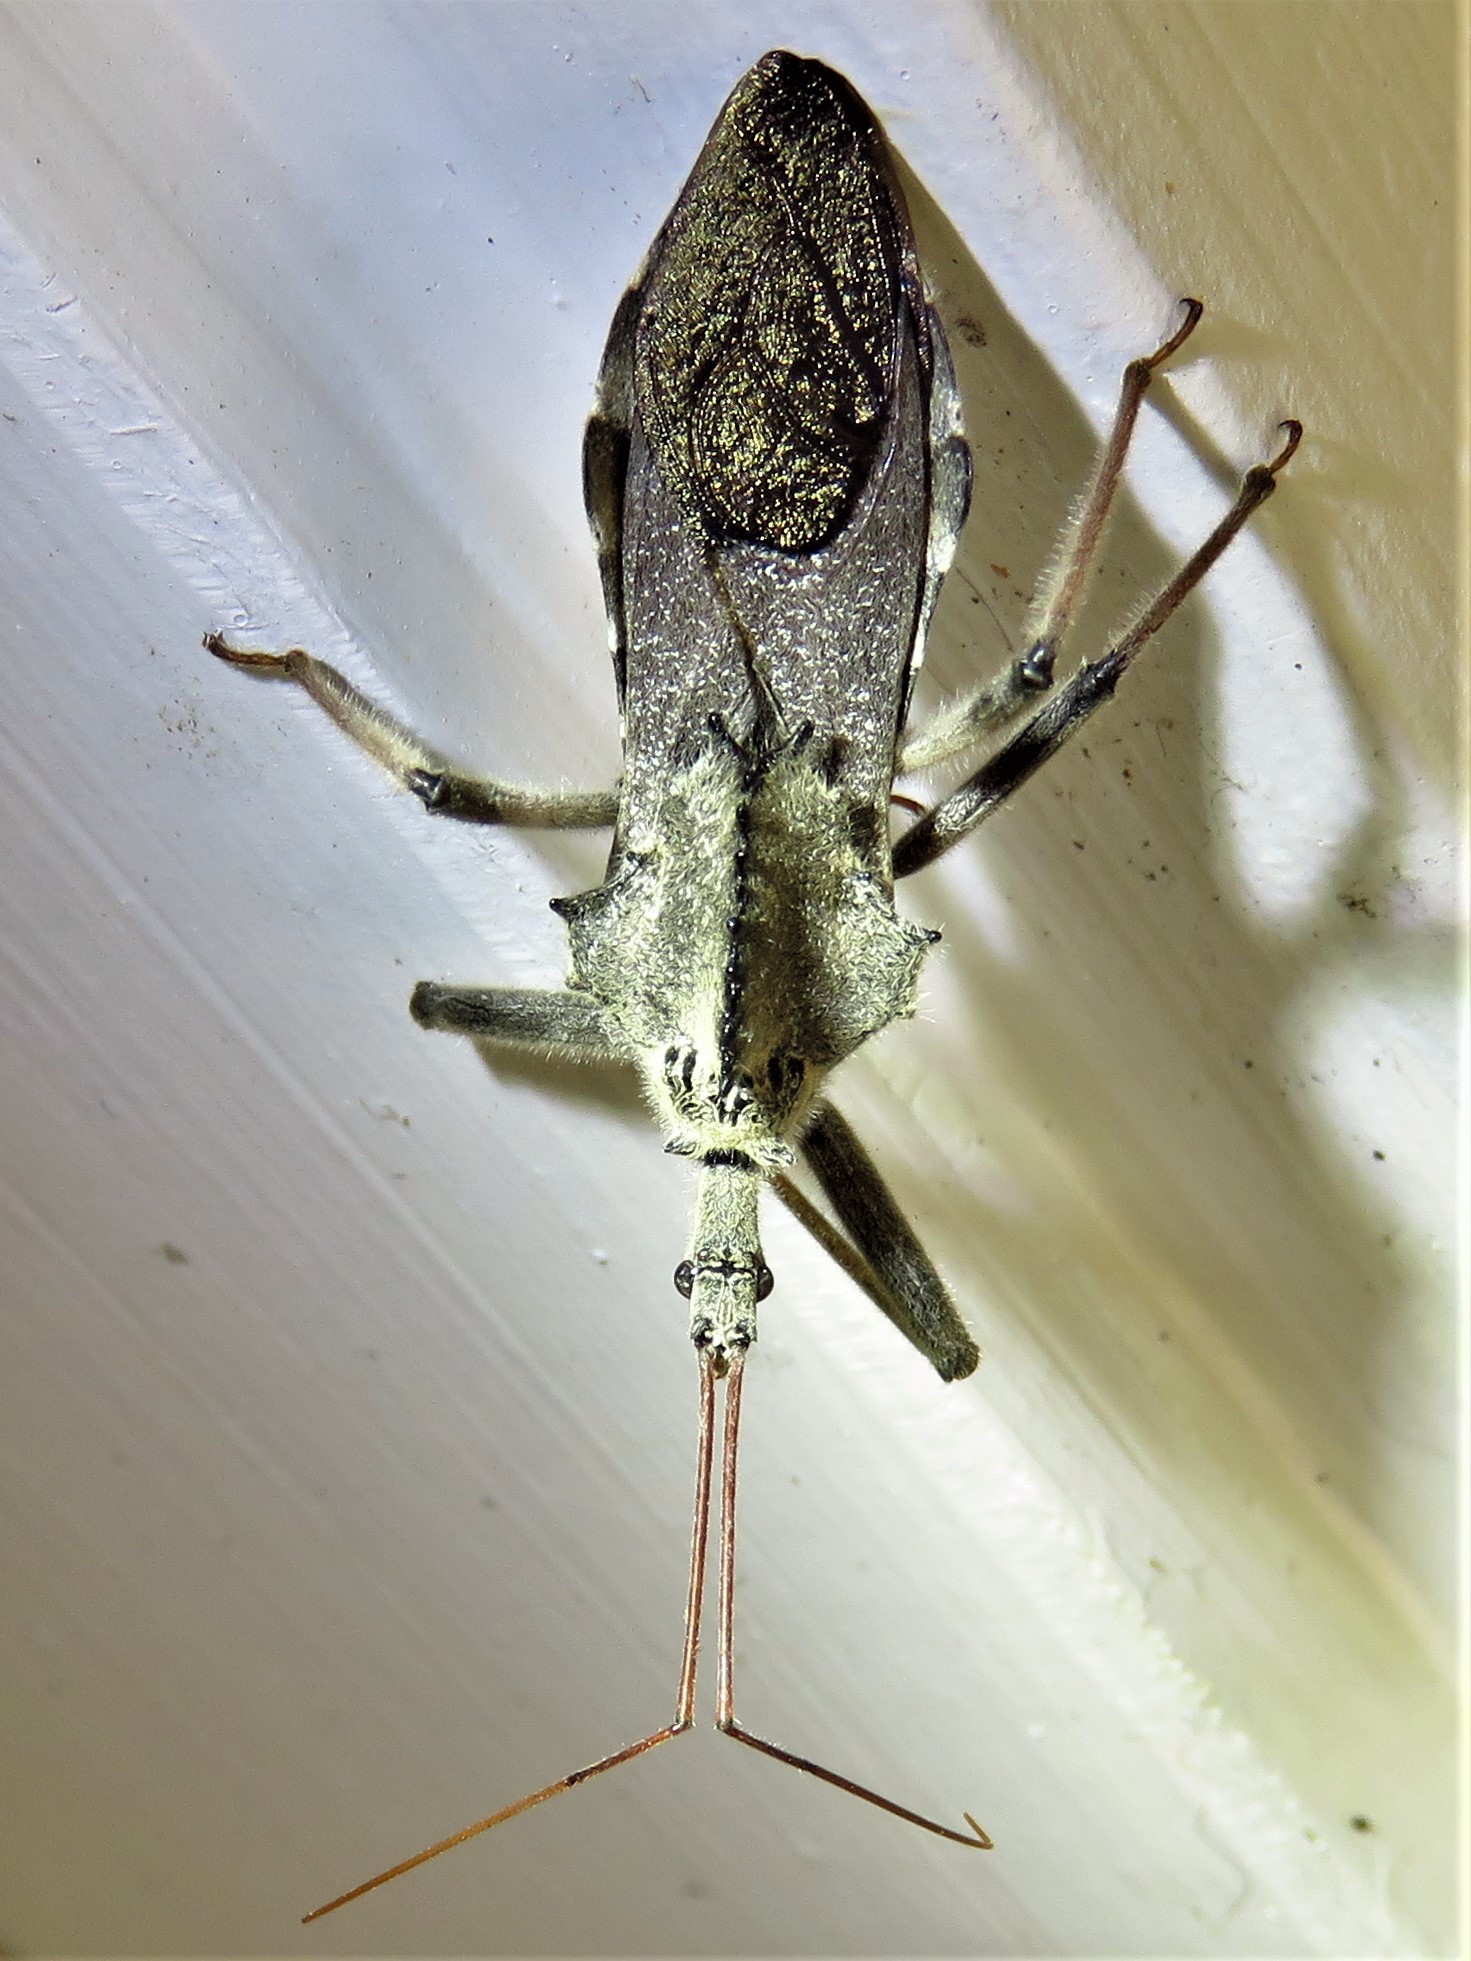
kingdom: Animalia
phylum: Arthropoda
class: Insecta
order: Hemiptera
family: Reduviidae
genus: Arilus
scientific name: Arilus cristatus
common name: North american wheel bug
